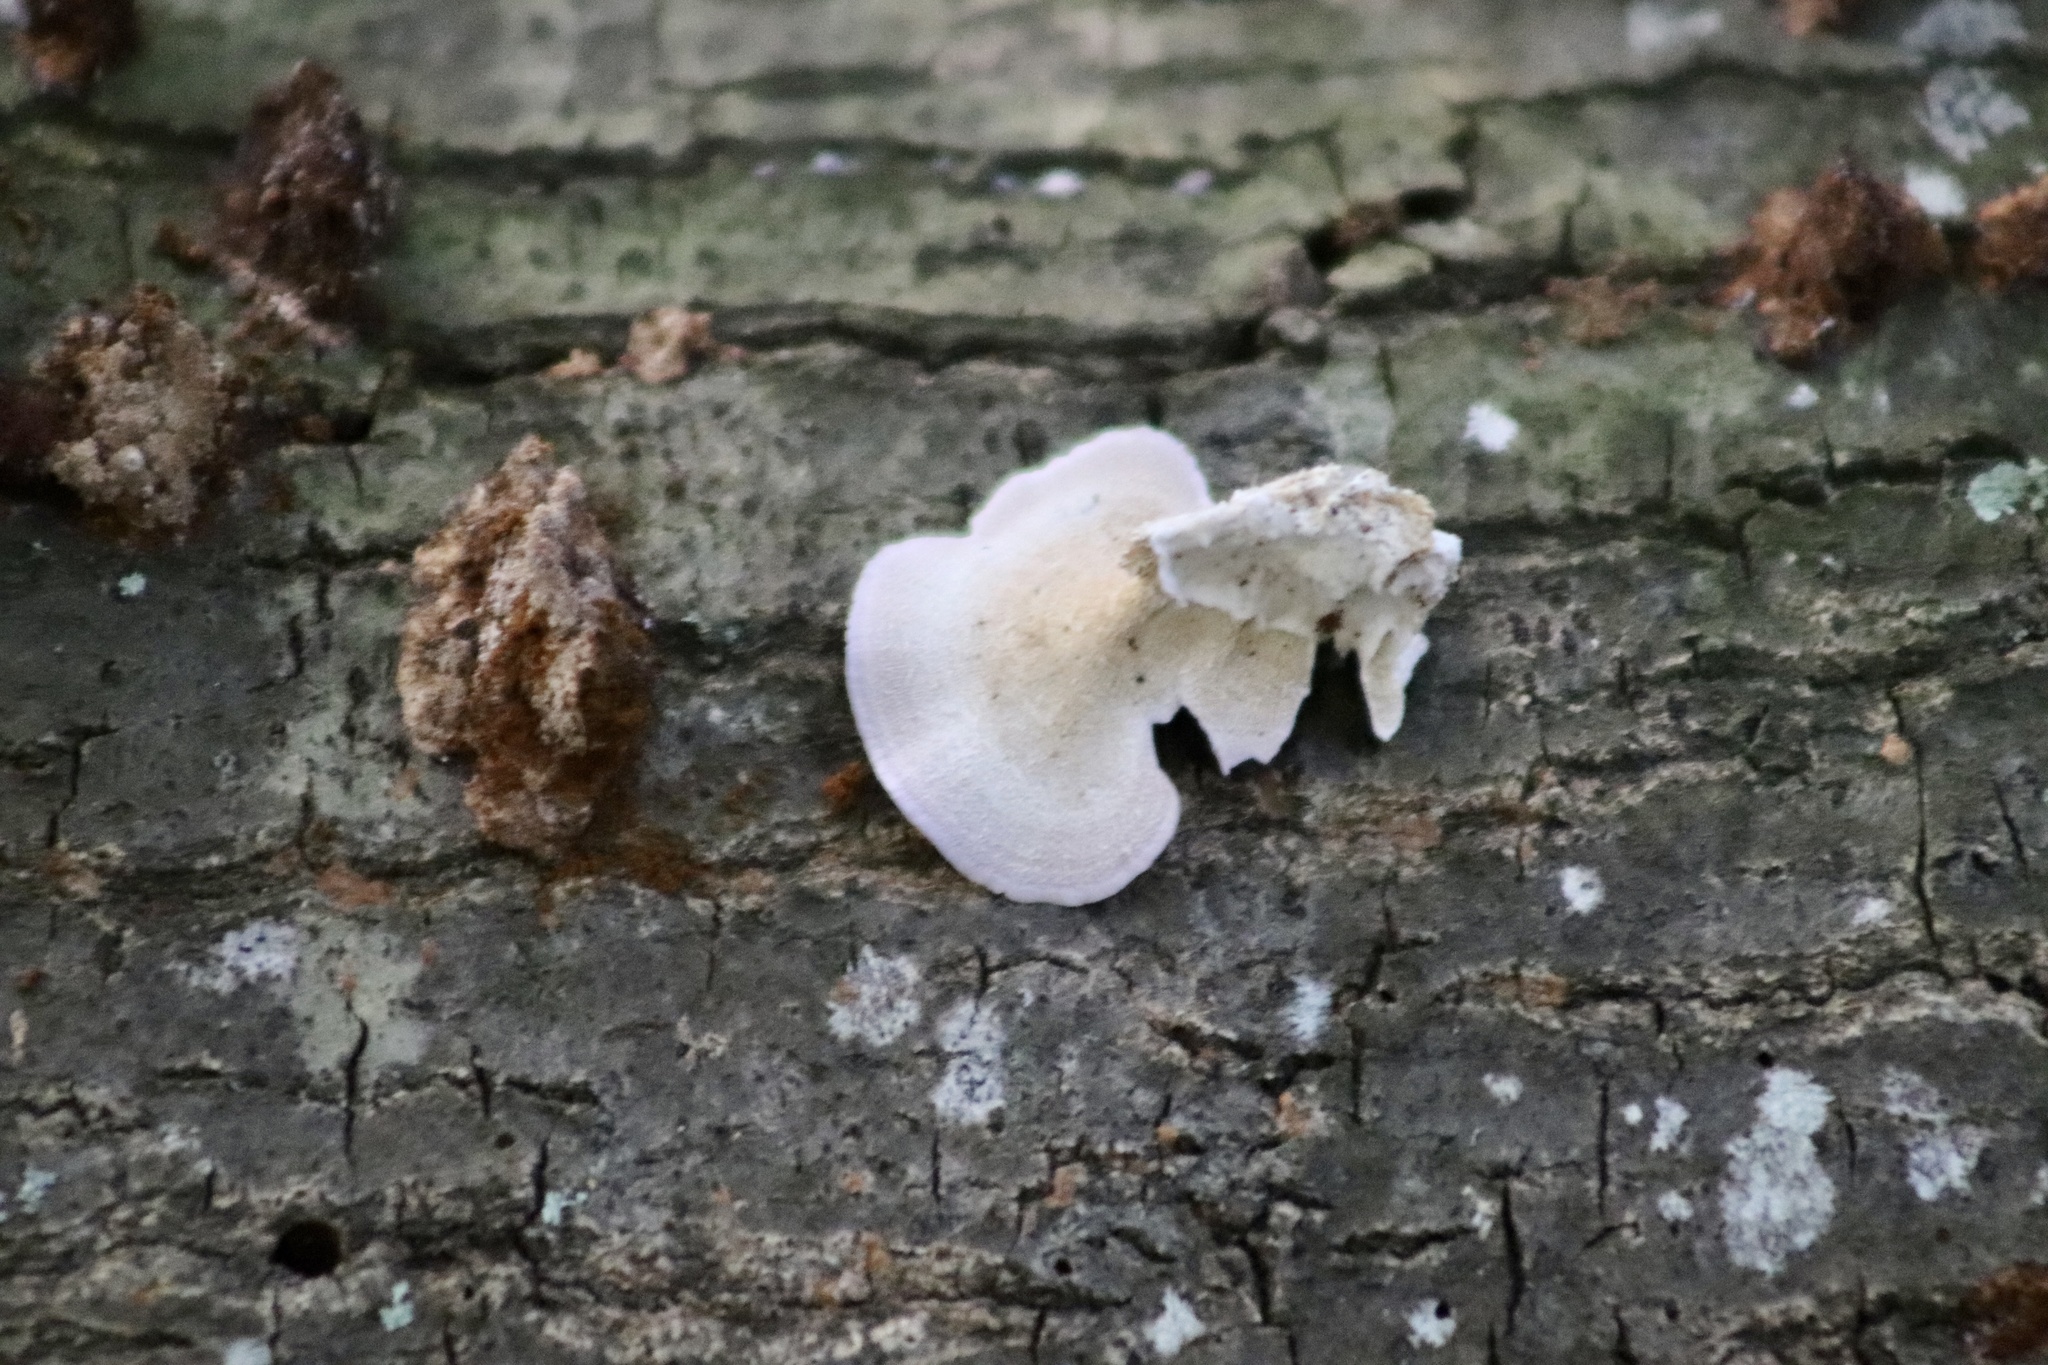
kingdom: Fungi
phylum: Basidiomycota
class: Agaricomycetes
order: Hymenochaetales
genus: Trichaptum
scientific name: Trichaptum biforme
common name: Violet-toothed polypore
